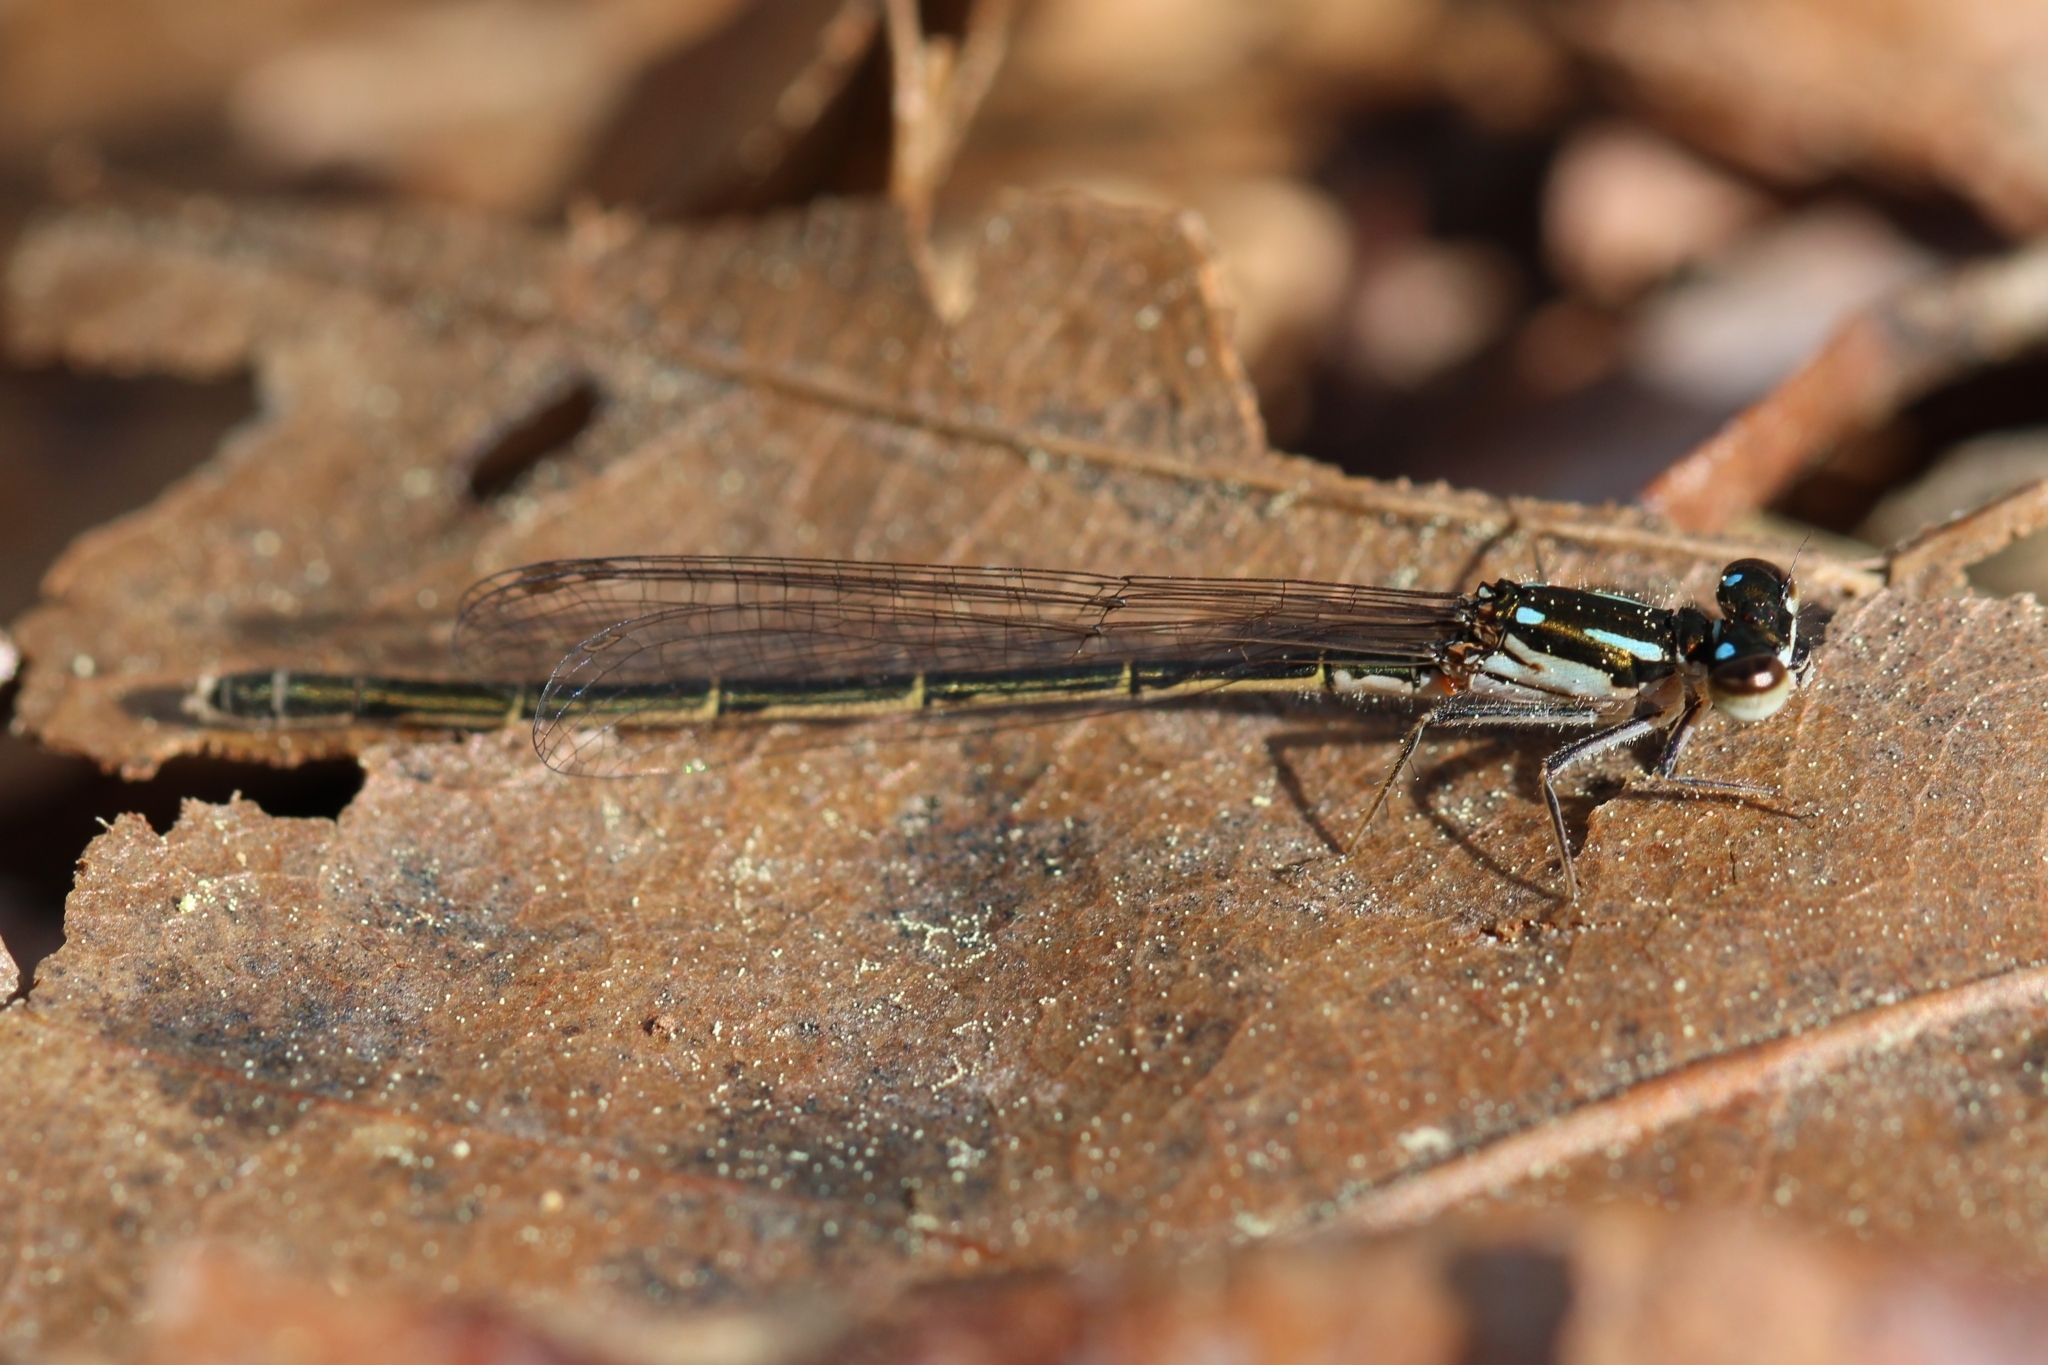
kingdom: Animalia
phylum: Arthropoda
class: Insecta
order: Odonata
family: Coenagrionidae
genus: Ischnura
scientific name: Ischnura posita
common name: Fragile forktail
